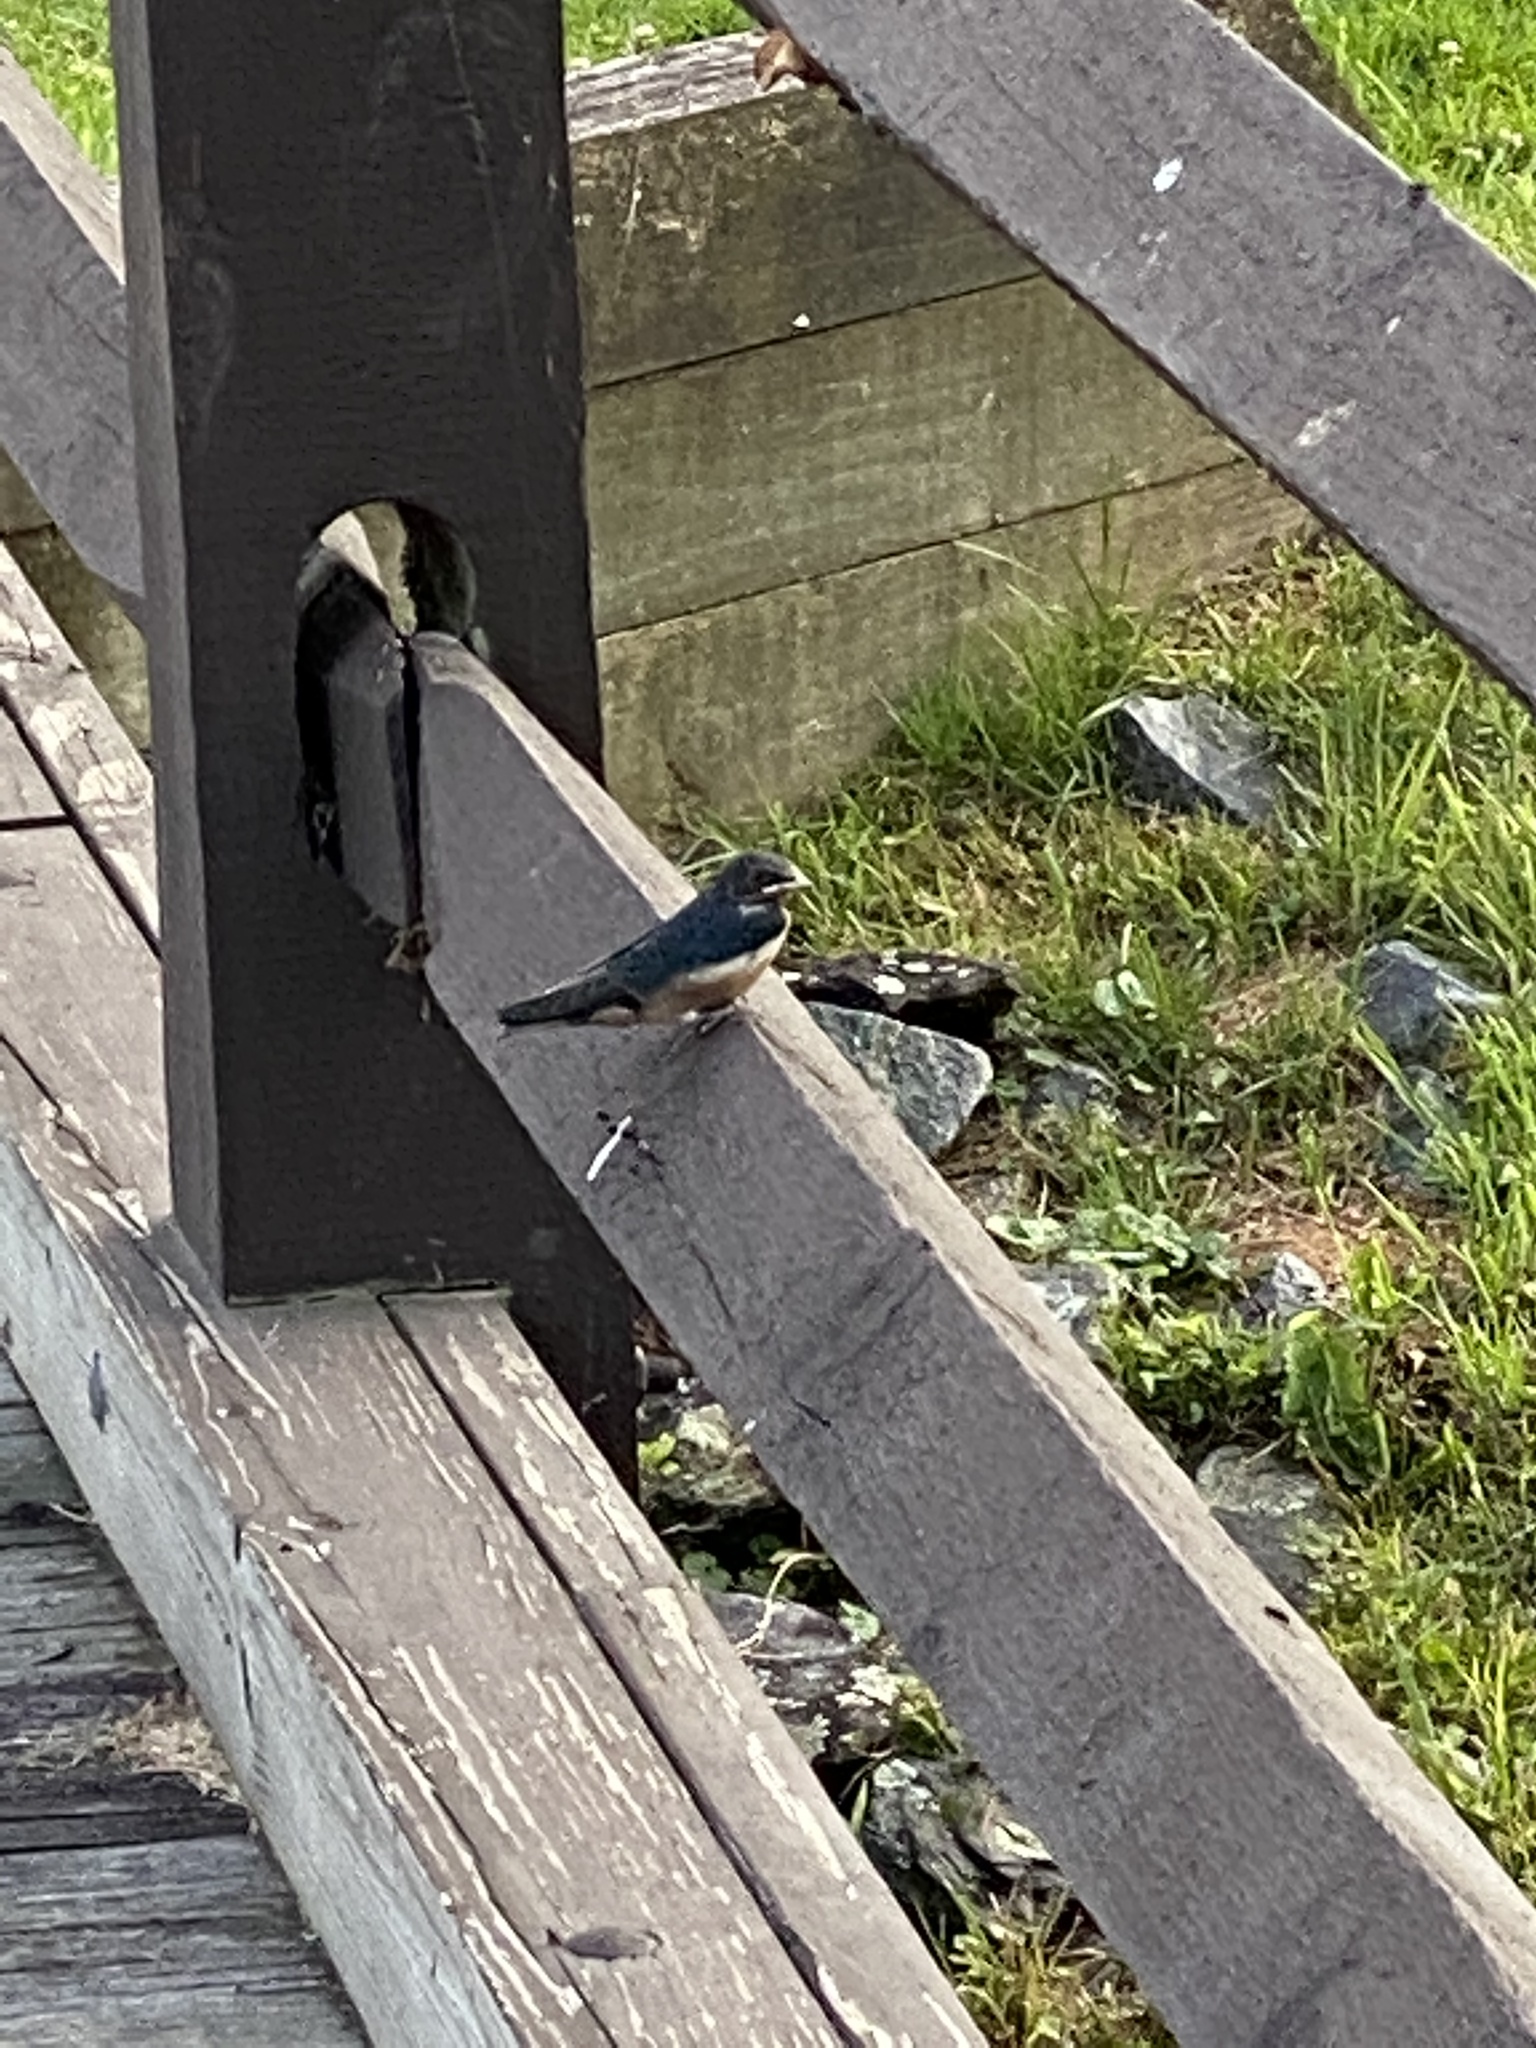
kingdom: Animalia
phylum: Chordata
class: Aves
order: Passeriformes
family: Hirundinidae
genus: Hirundo
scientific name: Hirundo rustica
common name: Barn swallow
